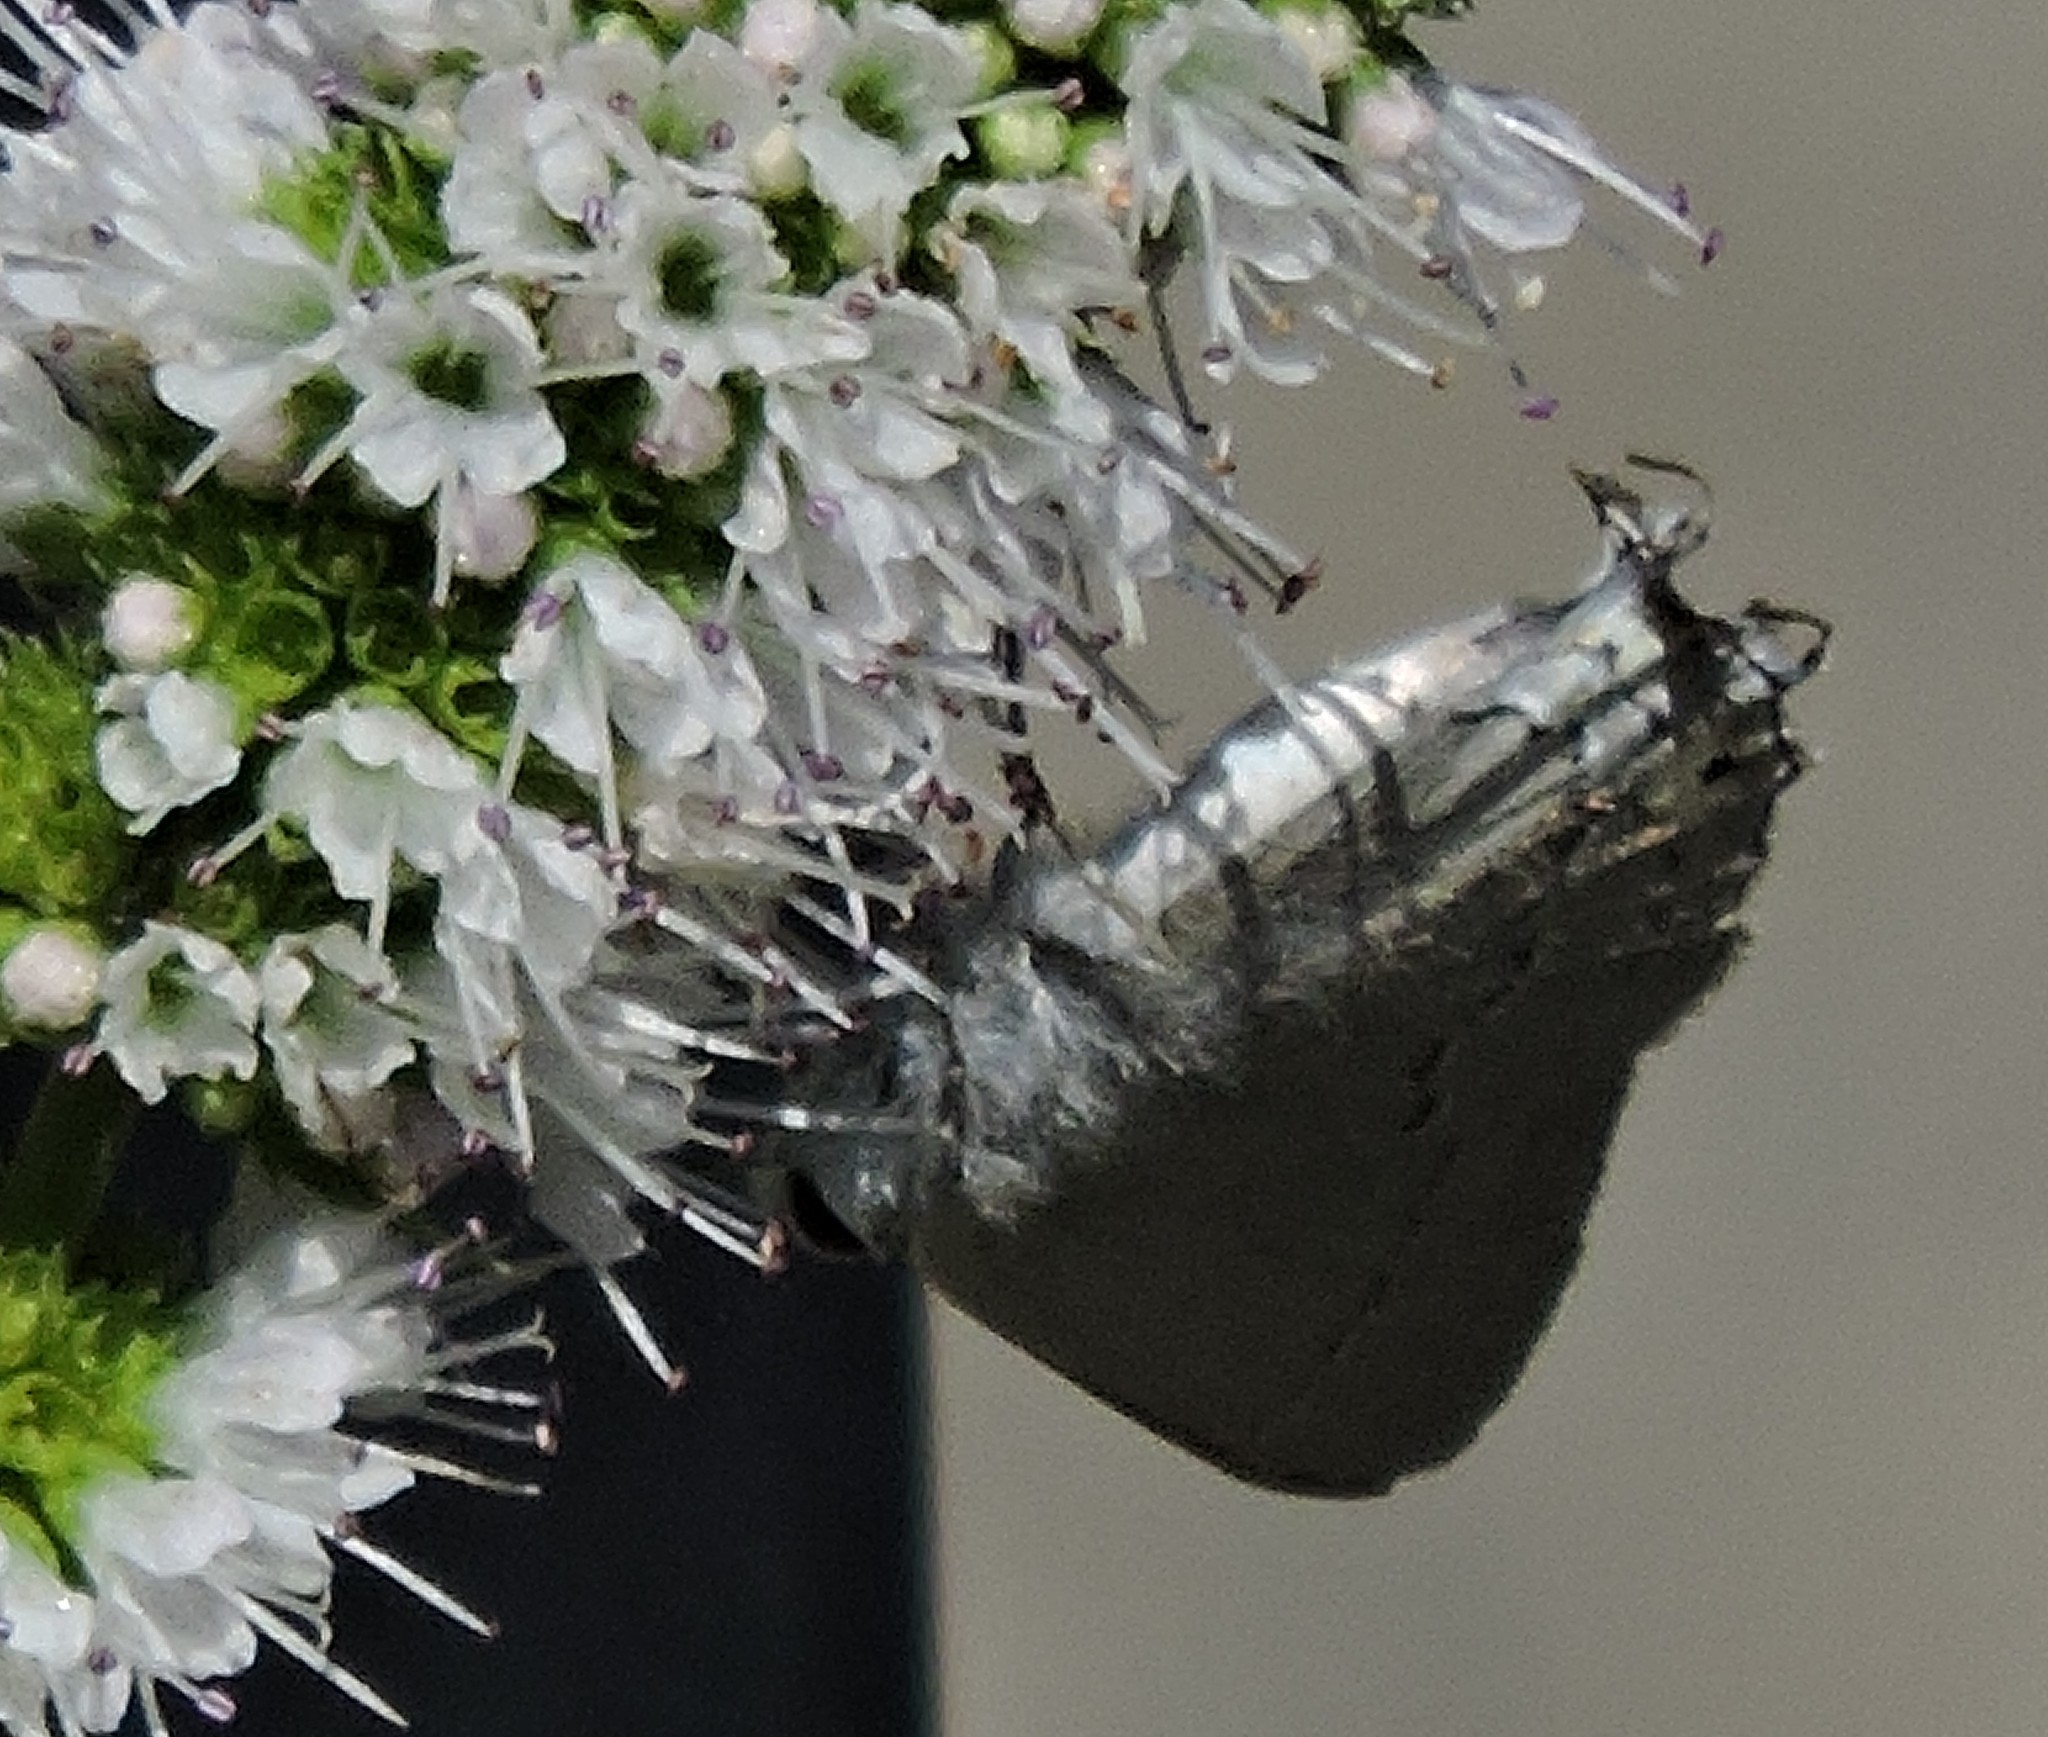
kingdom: Animalia
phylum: Arthropoda
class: Insecta
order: Lepidoptera
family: Lycaenidae
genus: Strymon
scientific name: Strymon melinus
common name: Gray hairstreak
